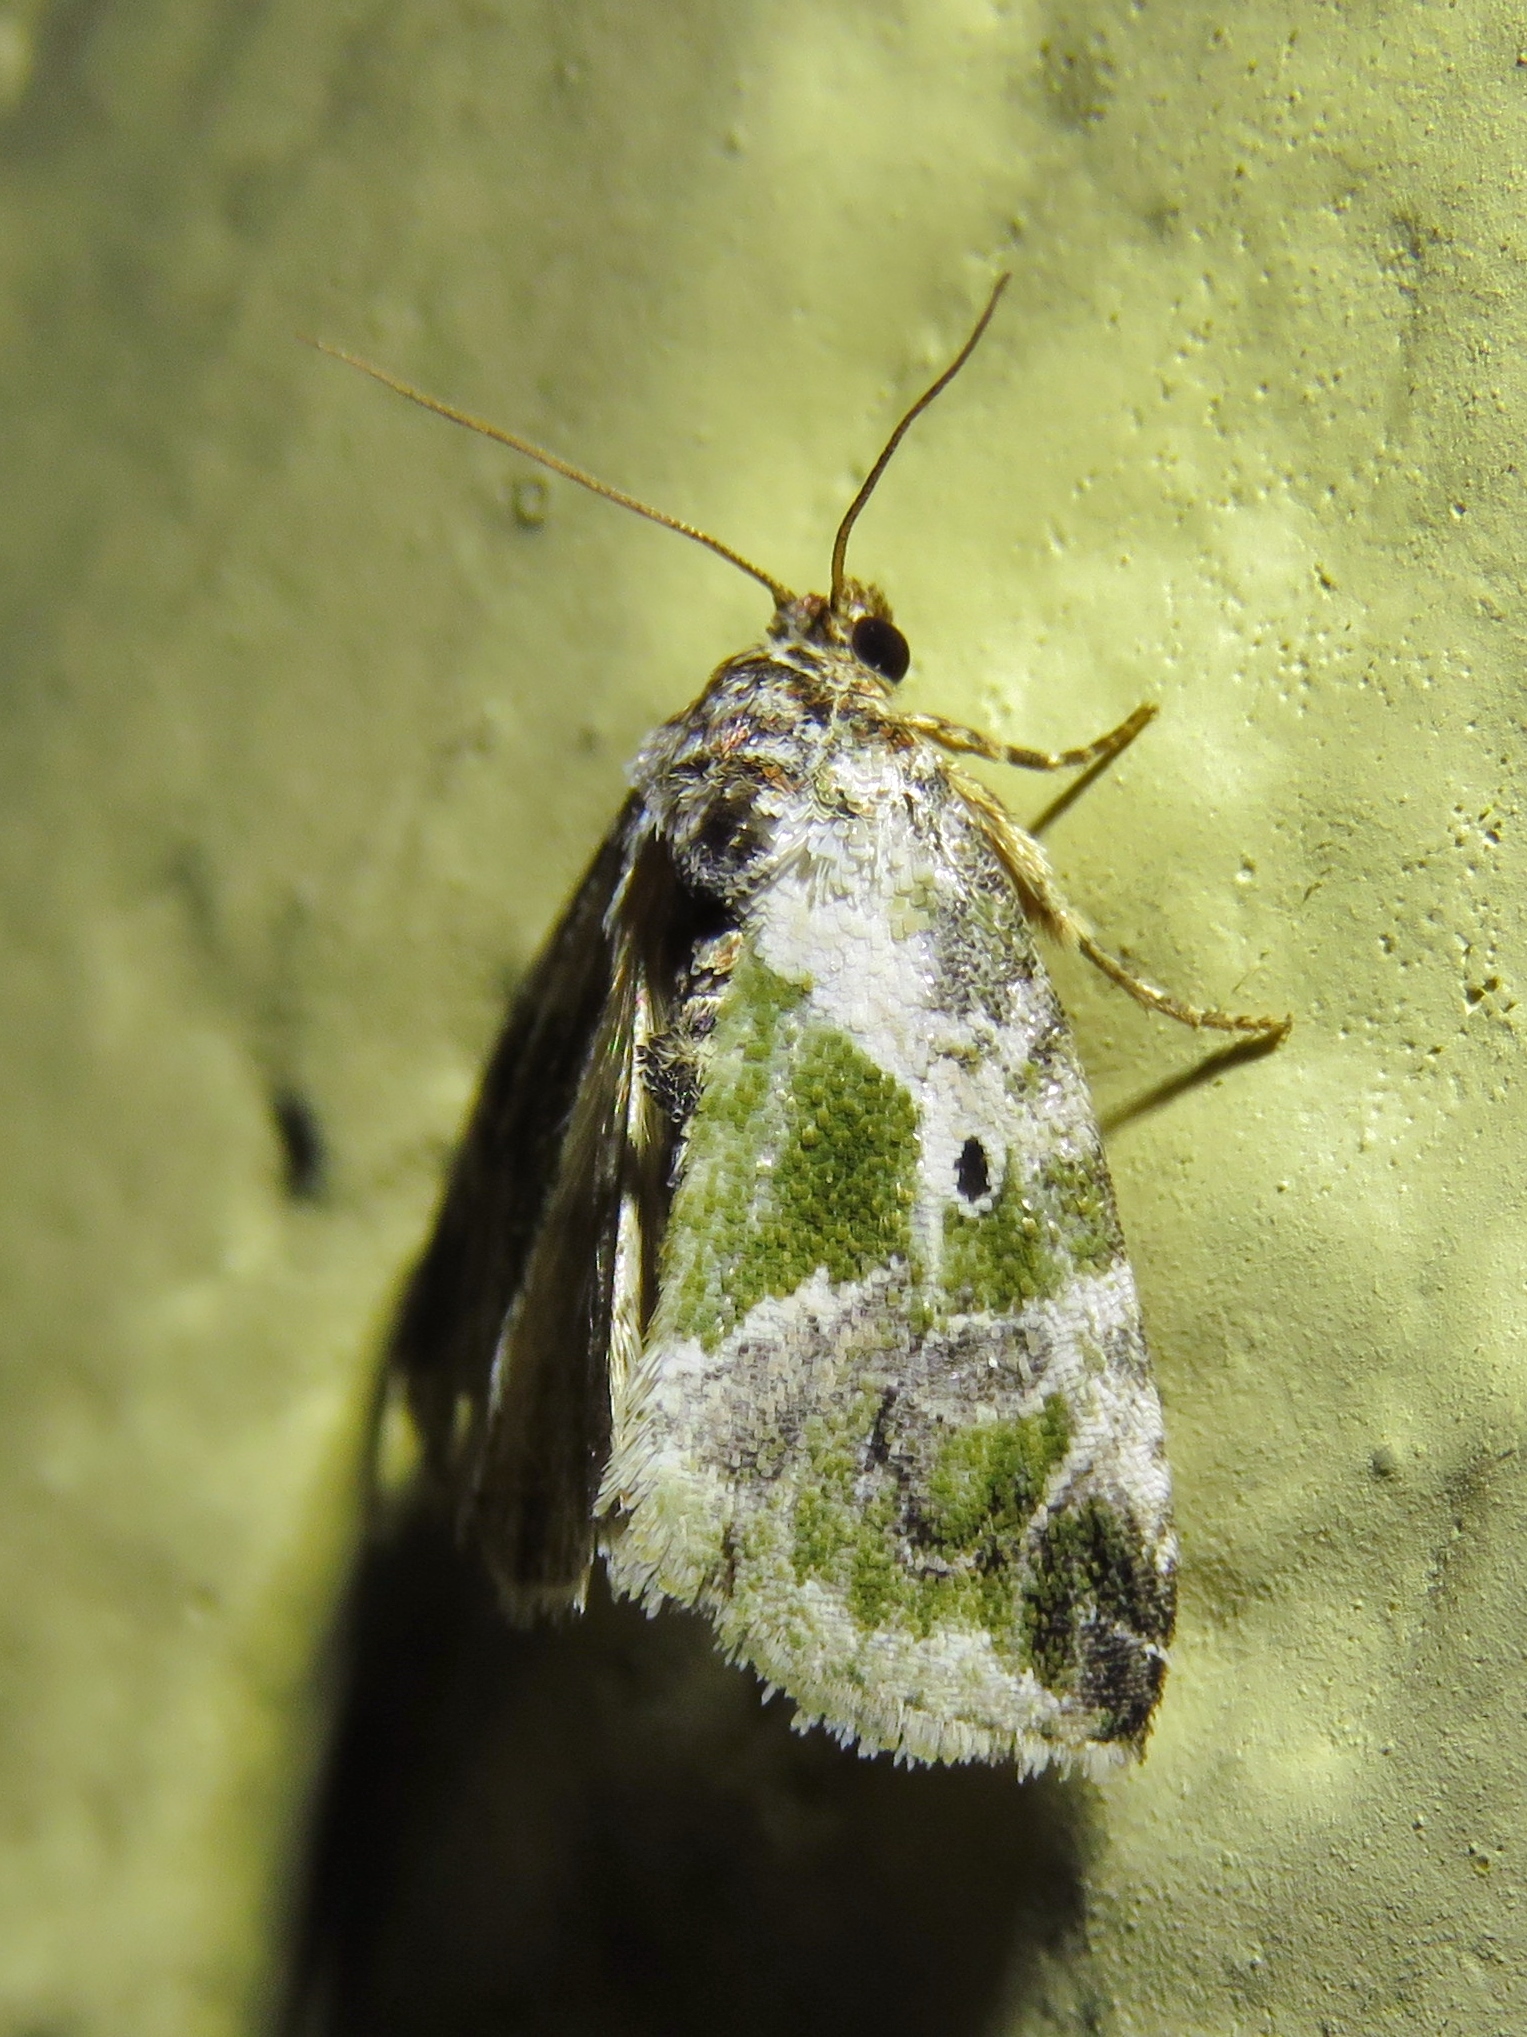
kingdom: Animalia
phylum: Arthropoda
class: Insecta
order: Lepidoptera
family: Noctuidae
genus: Maliattha
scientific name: Maliattha synochitis
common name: Black-dotted glyph
